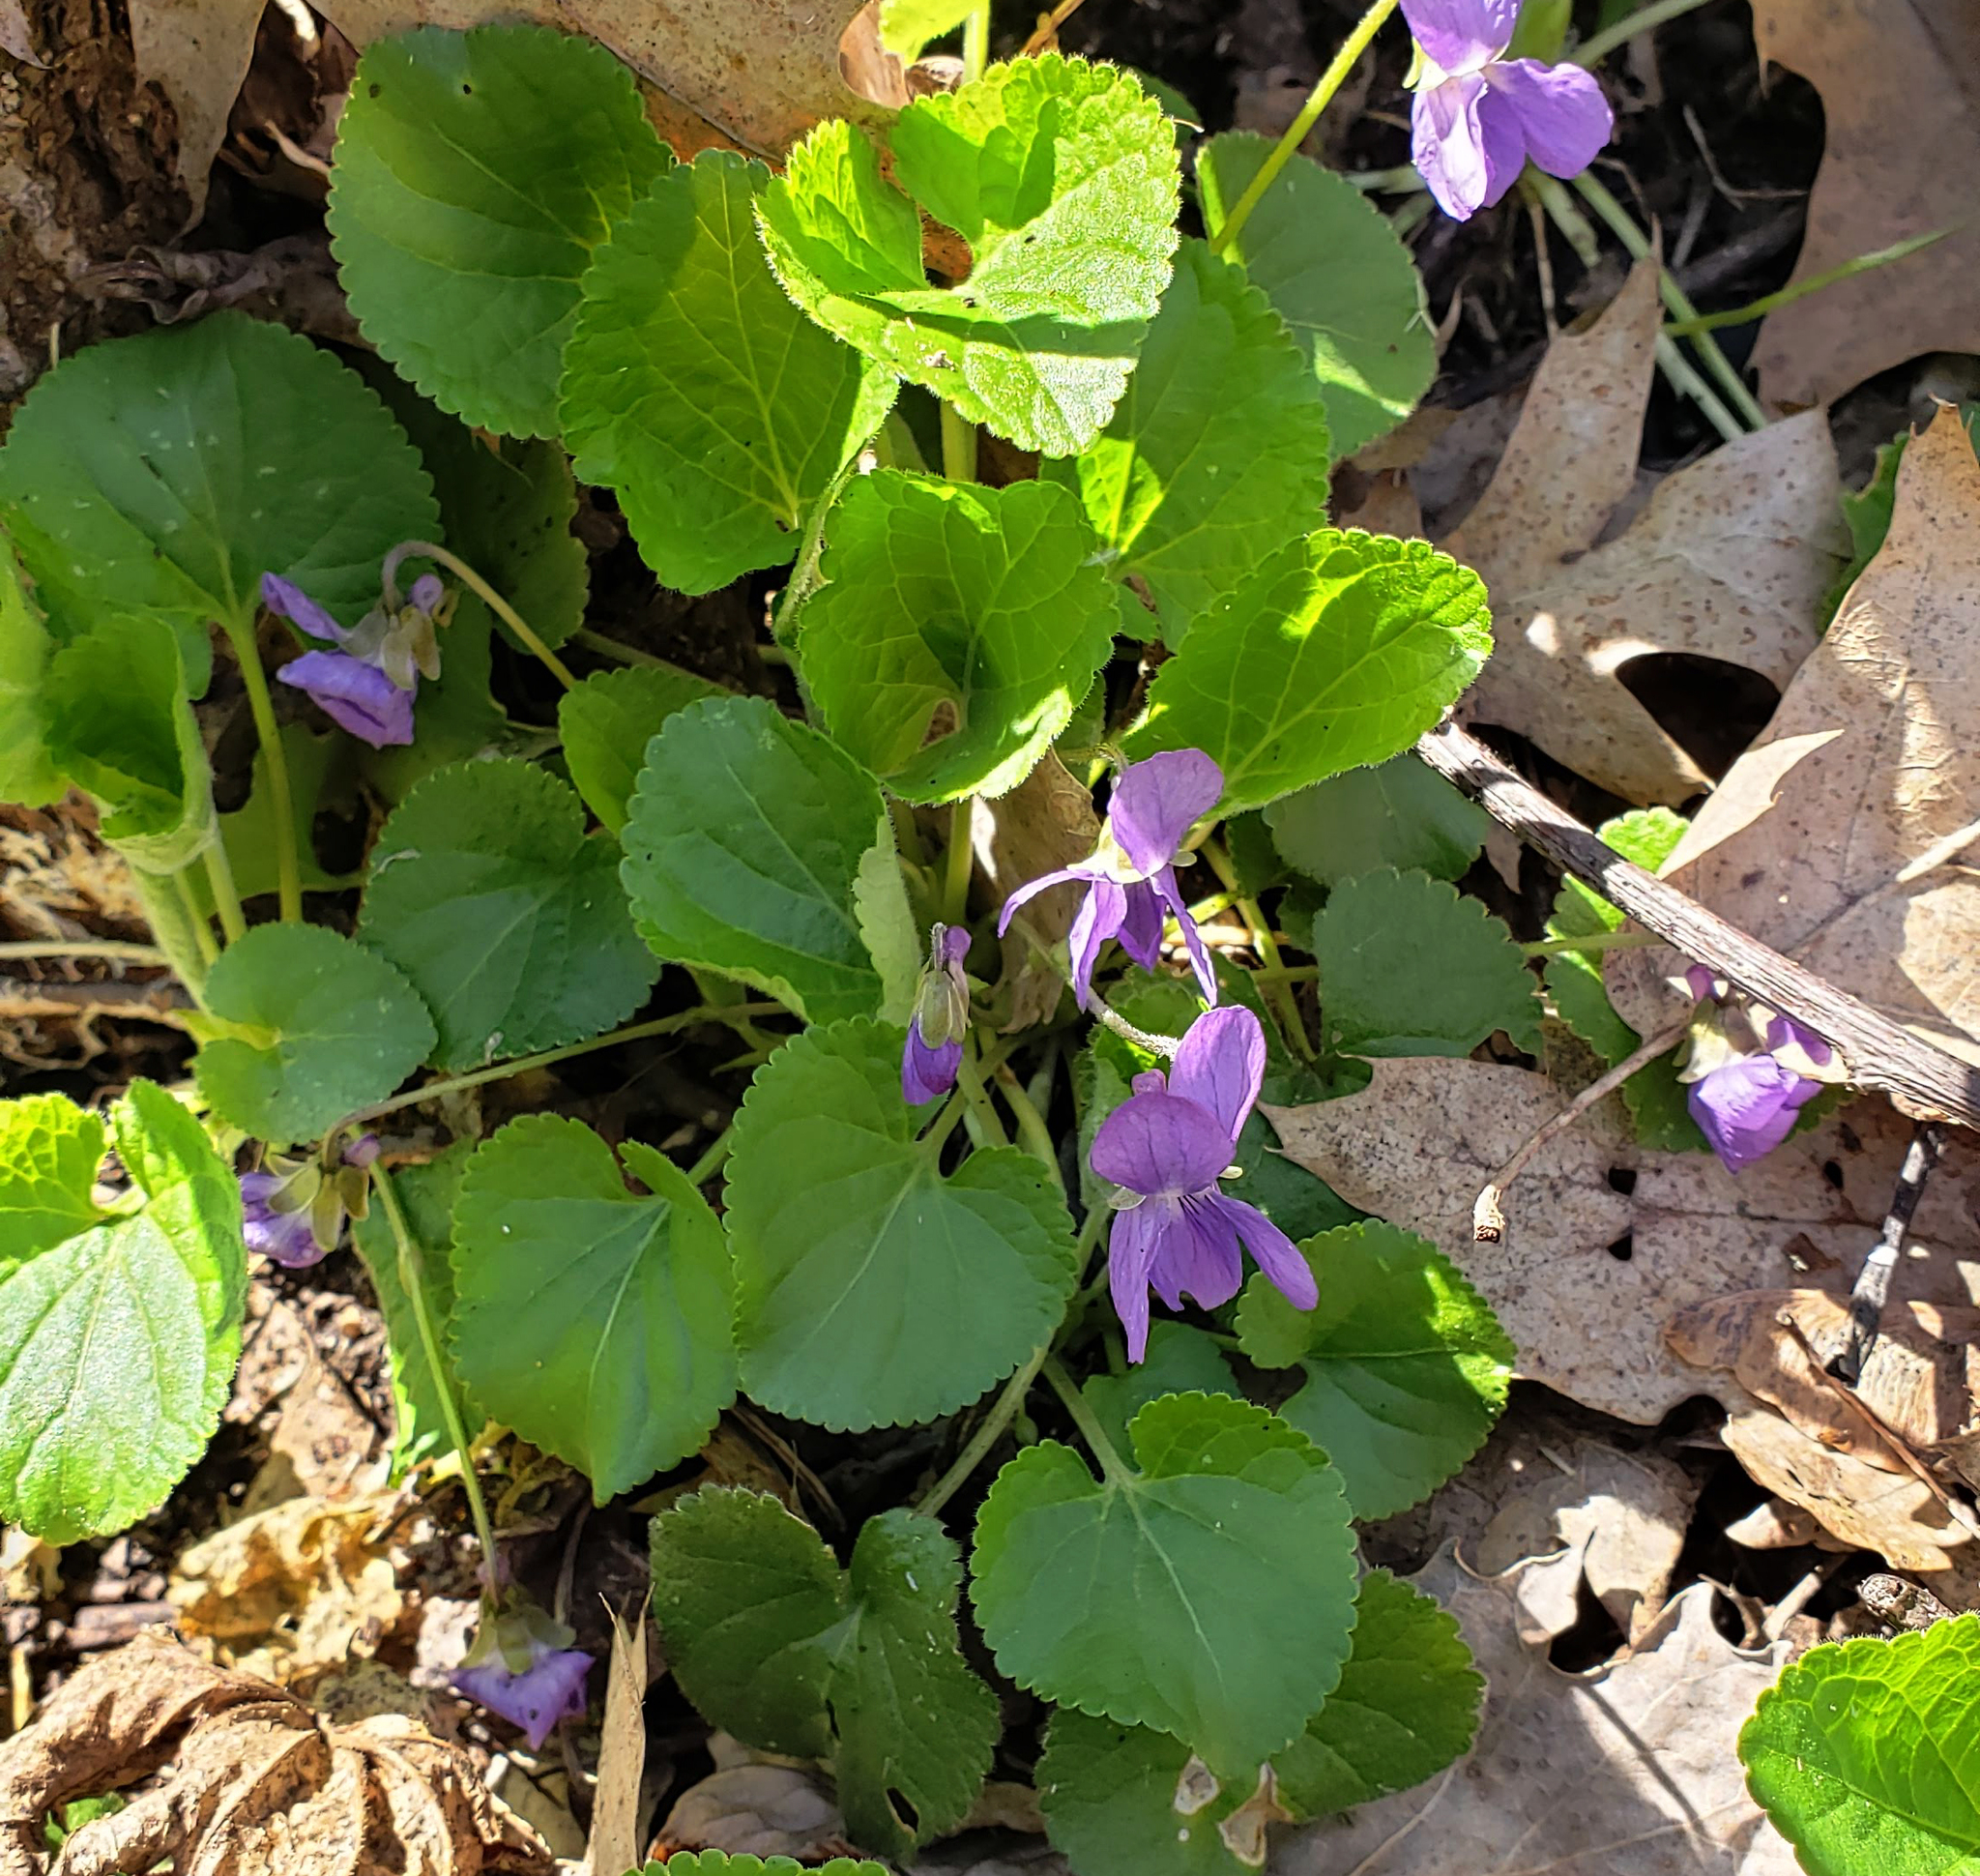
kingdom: Plantae
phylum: Tracheophyta
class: Magnoliopsida
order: Malpighiales
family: Violaceae
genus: Viola
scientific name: Viola odorata
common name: Sweet violet
